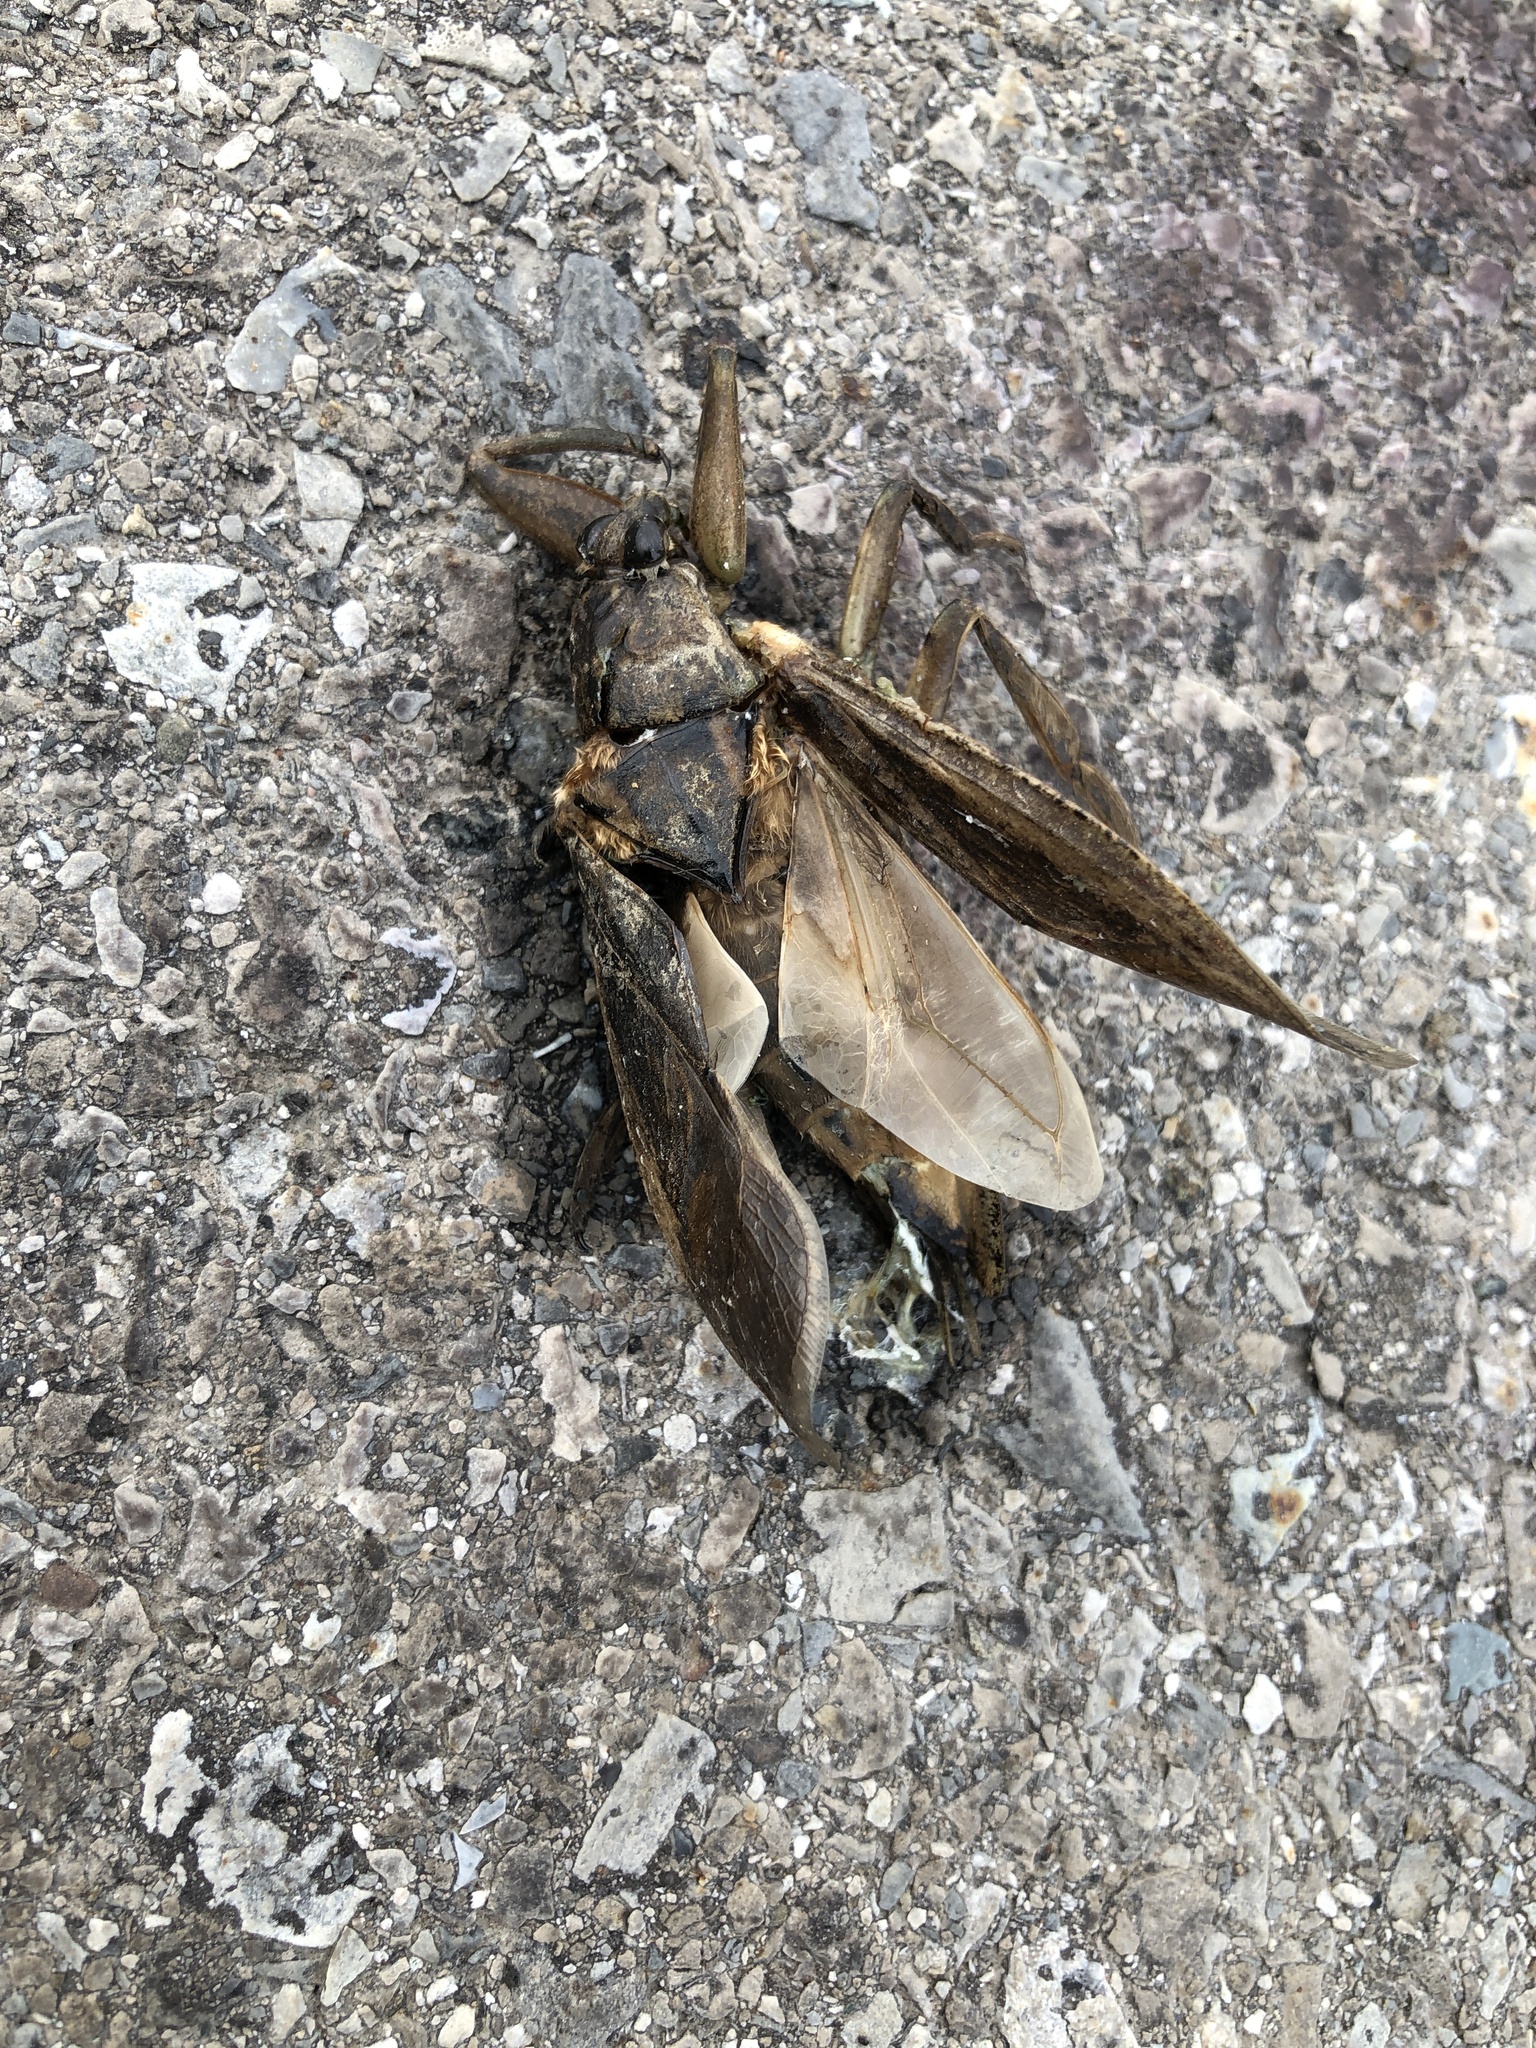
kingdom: Animalia
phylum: Arthropoda
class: Insecta
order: Hemiptera
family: Belostomatidae
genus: Lethocerus
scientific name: Lethocerus americanus
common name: Giant water bug
